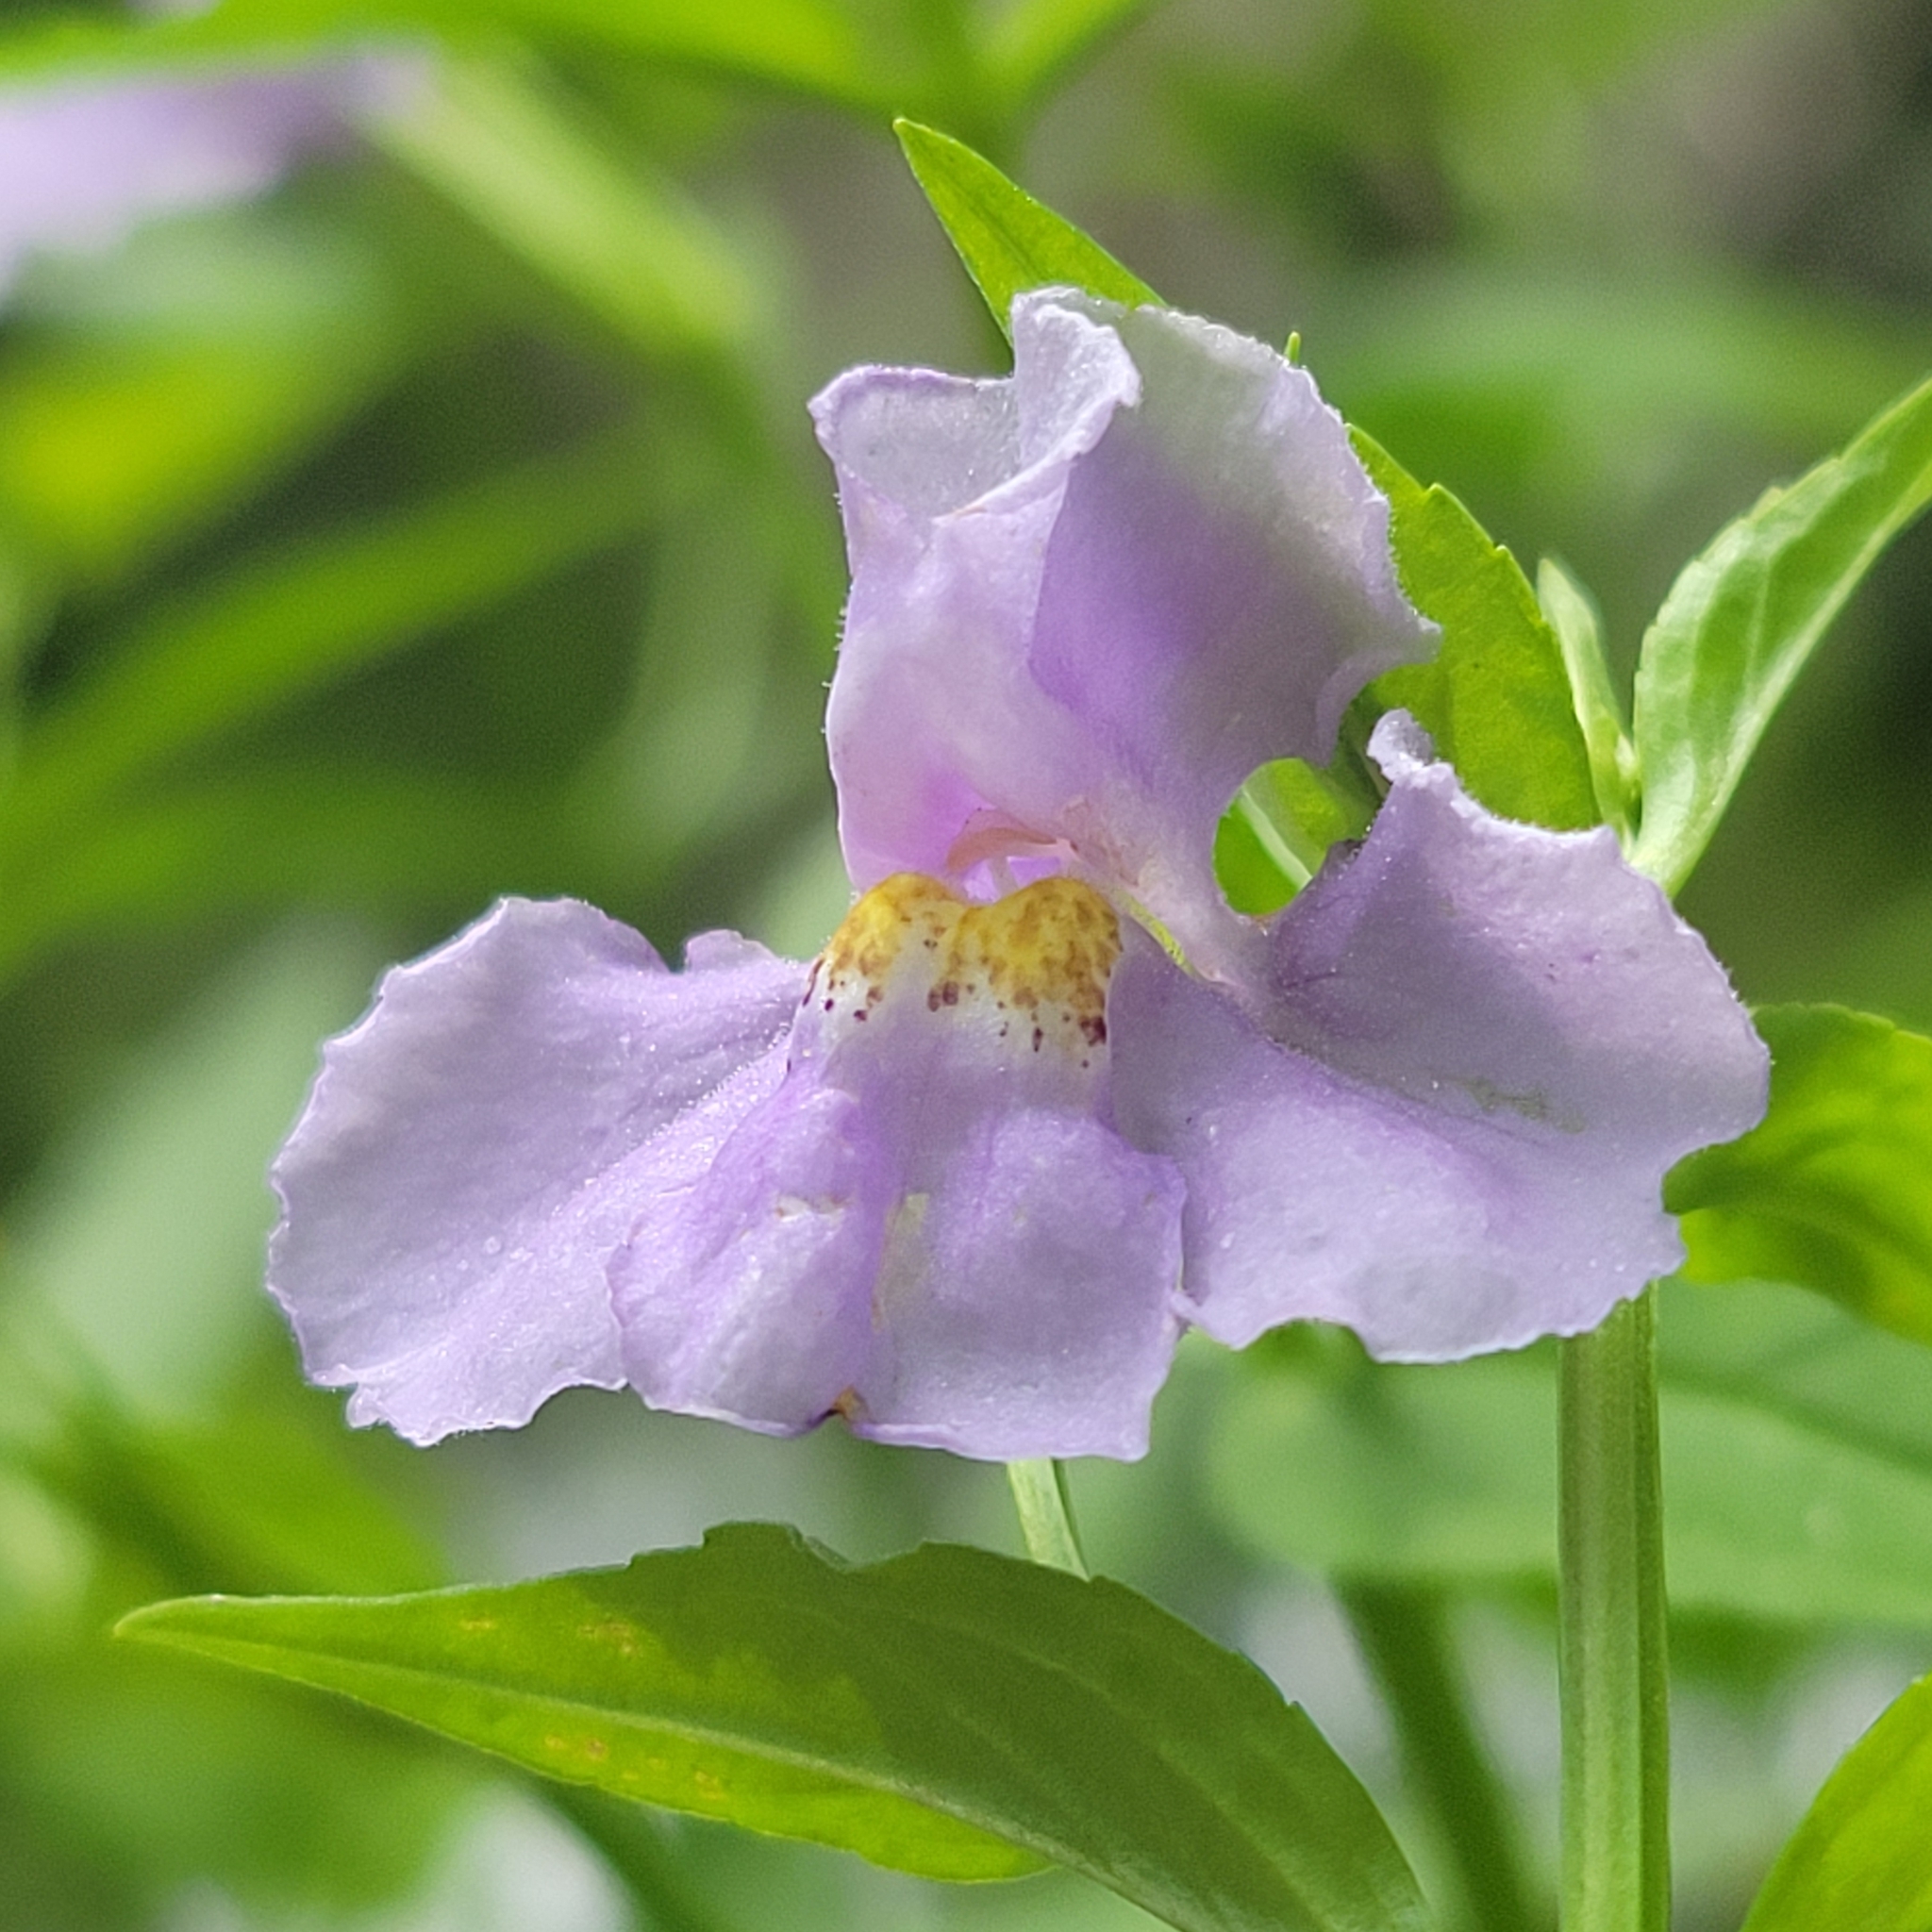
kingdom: Plantae
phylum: Tracheophyta
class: Magnoliopsida
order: Lamiales
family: Phrymaceae
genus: Mimulus
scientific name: Mimulus ringens
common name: Allegheny monkeyflower
